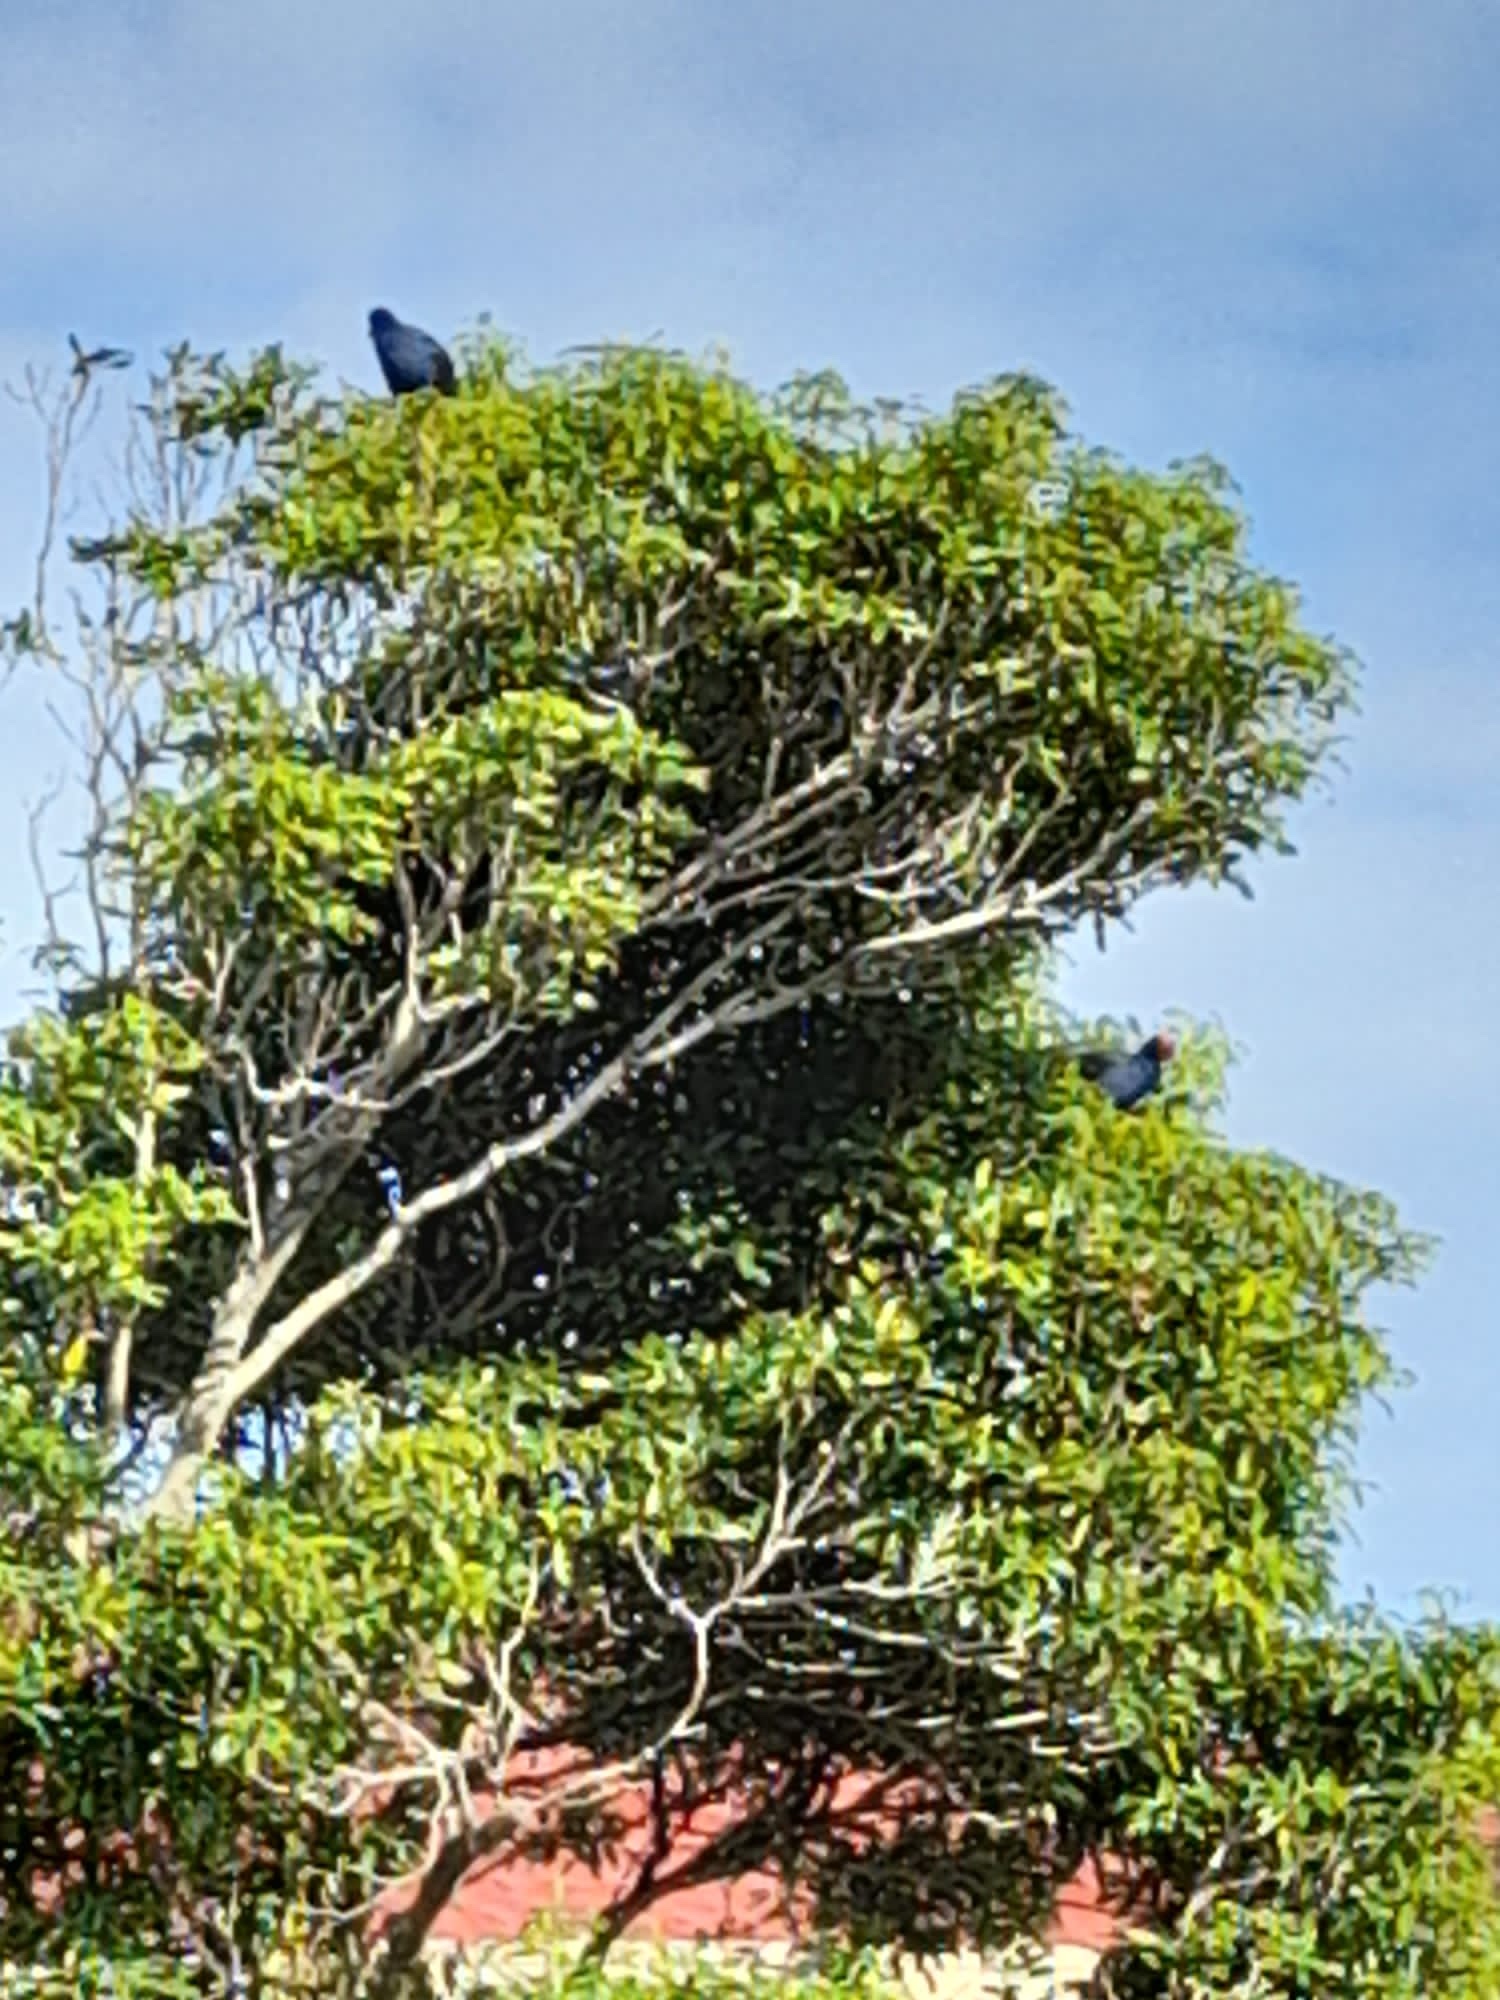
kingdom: Animalia
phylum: Chordata
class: Aves
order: Gruiformes
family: Rallidae
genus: Porphyrio
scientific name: Porphyrio melanotus
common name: Australasian swamphen
